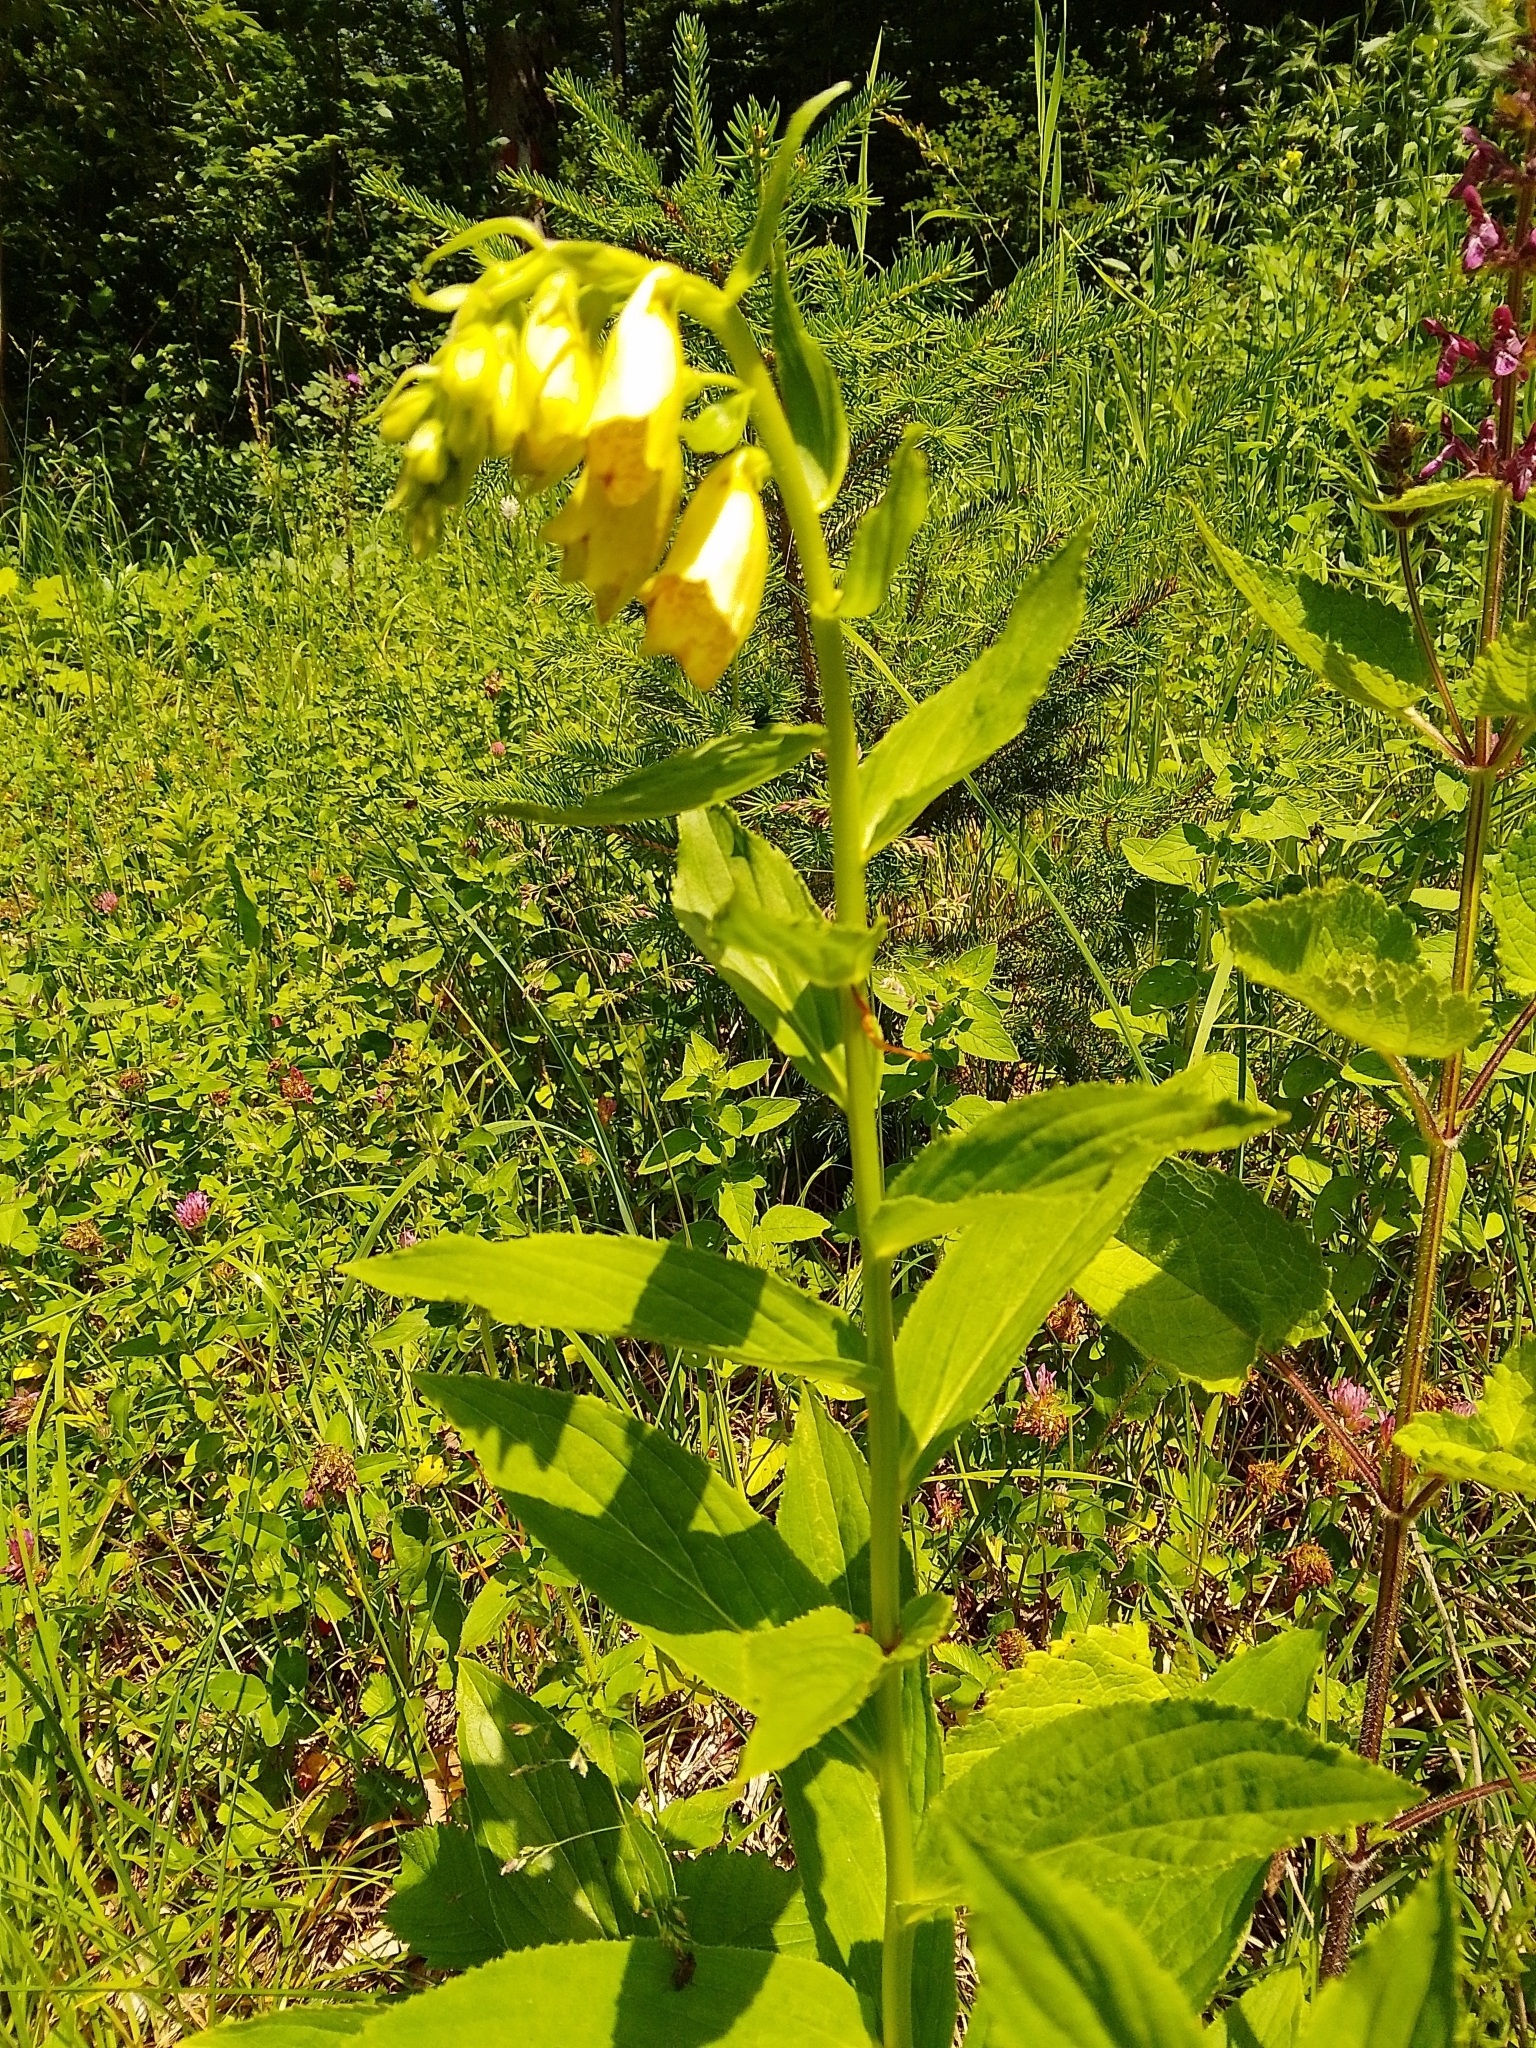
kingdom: Plantae
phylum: Tracheophyta
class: Magnoliopsida
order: Lamiales
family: Plantaginaceae
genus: Digitalis
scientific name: Digitalis grandiflora
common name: Yellow foxglove
